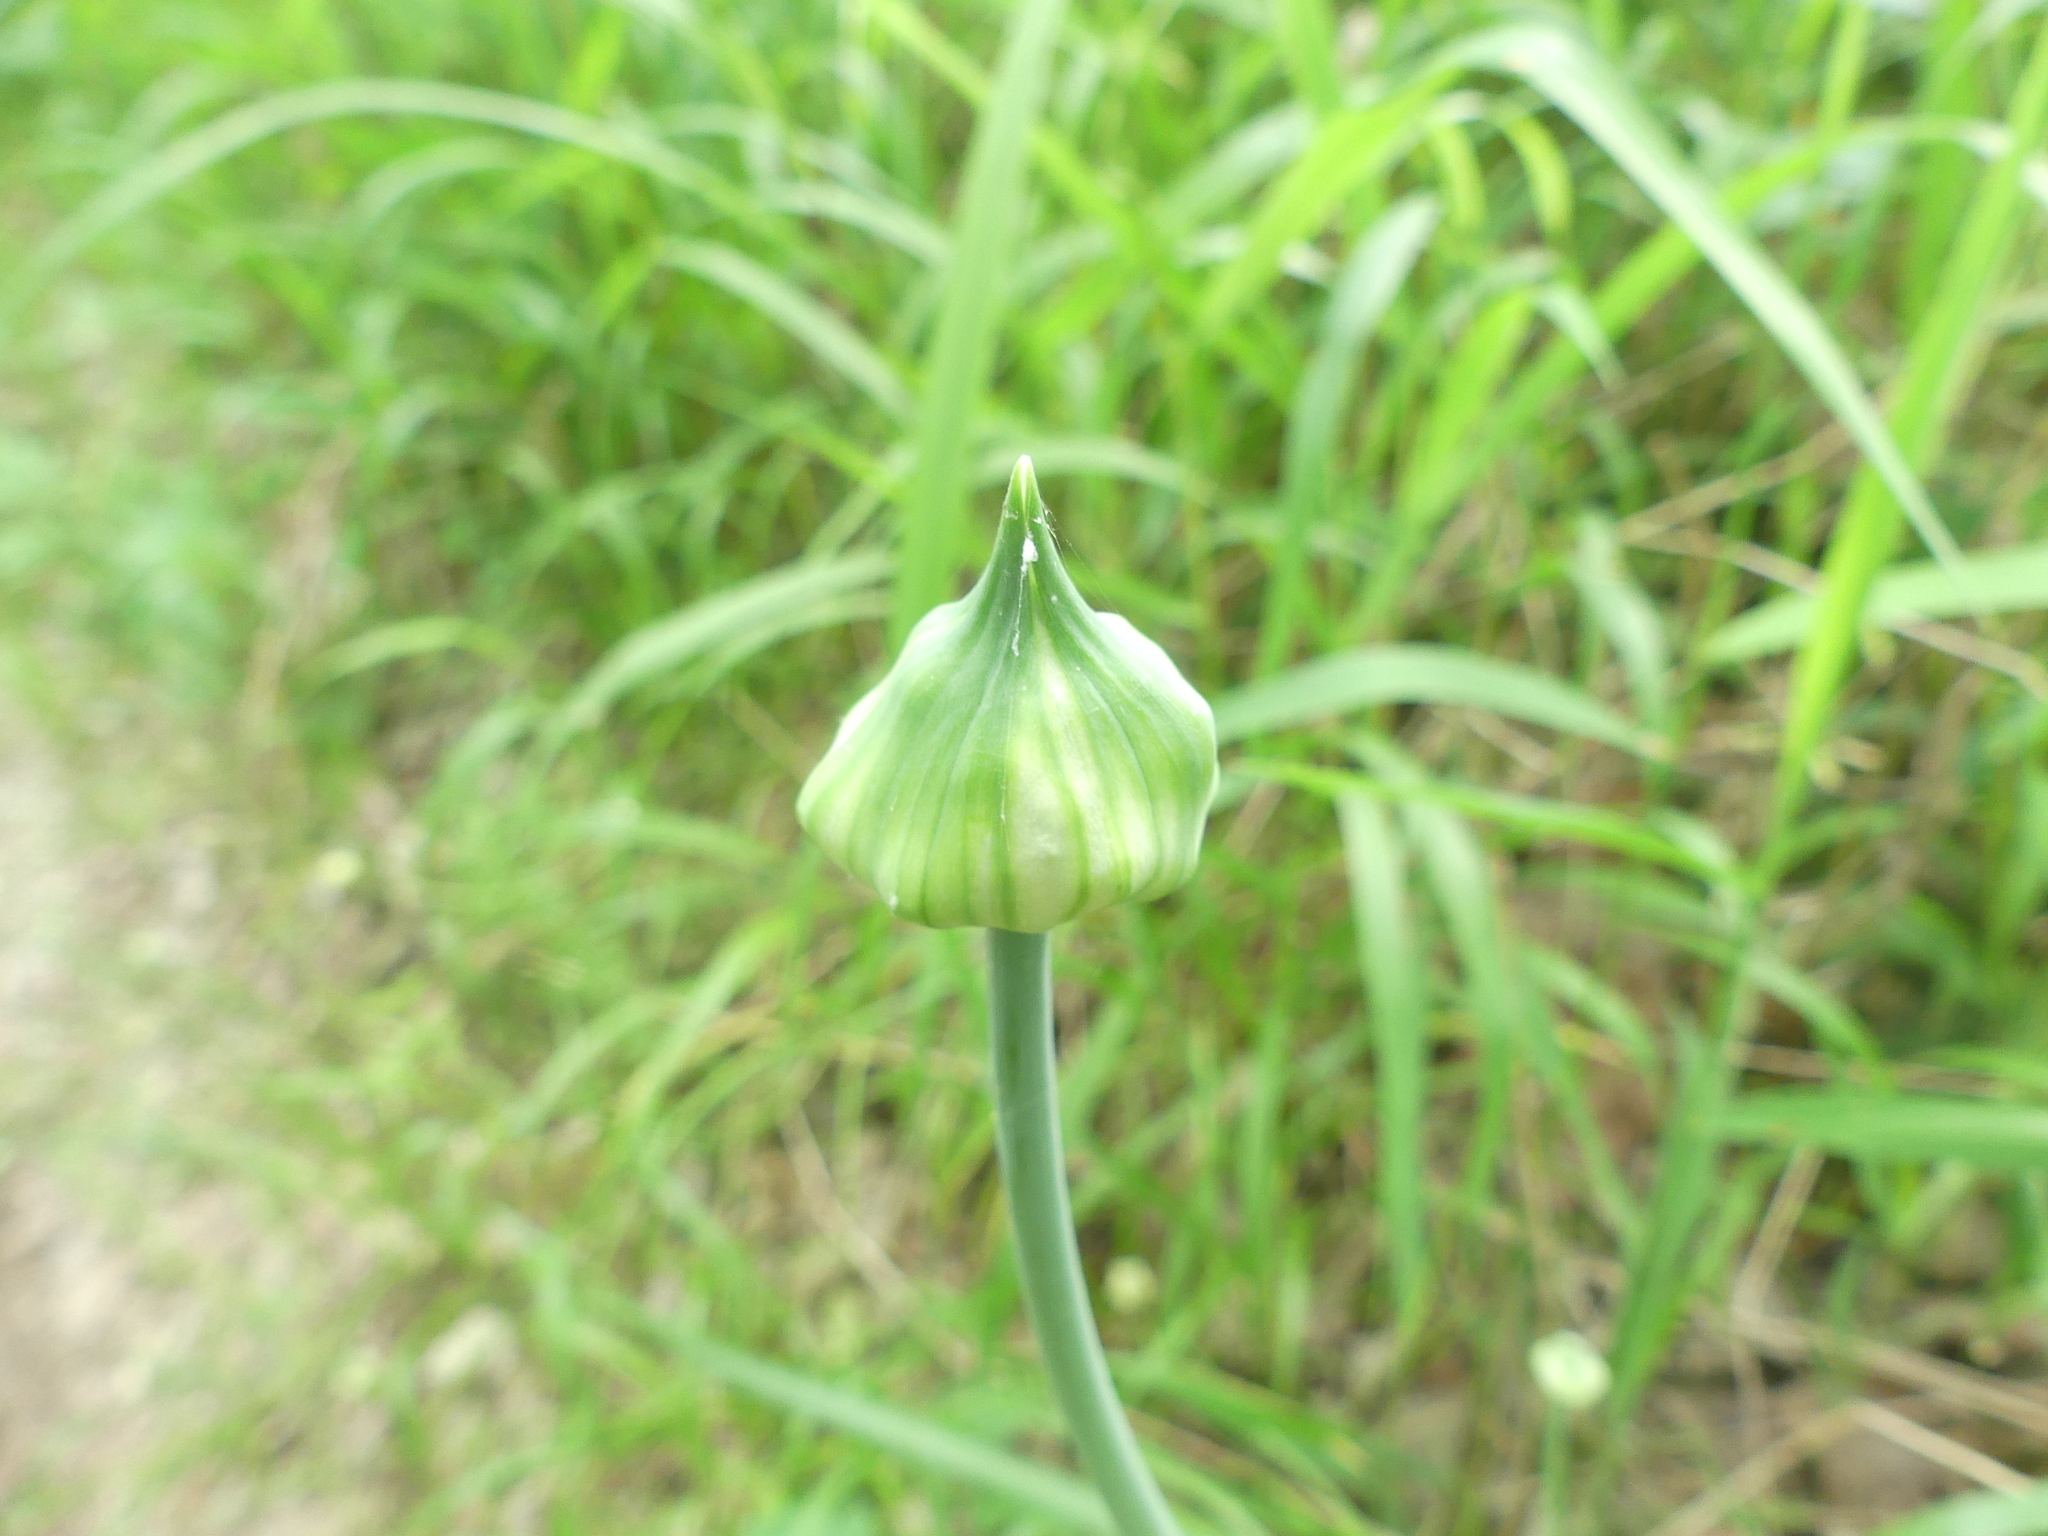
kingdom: Plantae
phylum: Tracheophyta
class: Liliopsida
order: Asparagales
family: Amaryllidaceae
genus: Allium
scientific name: Allium canadense
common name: Meadow garlic
